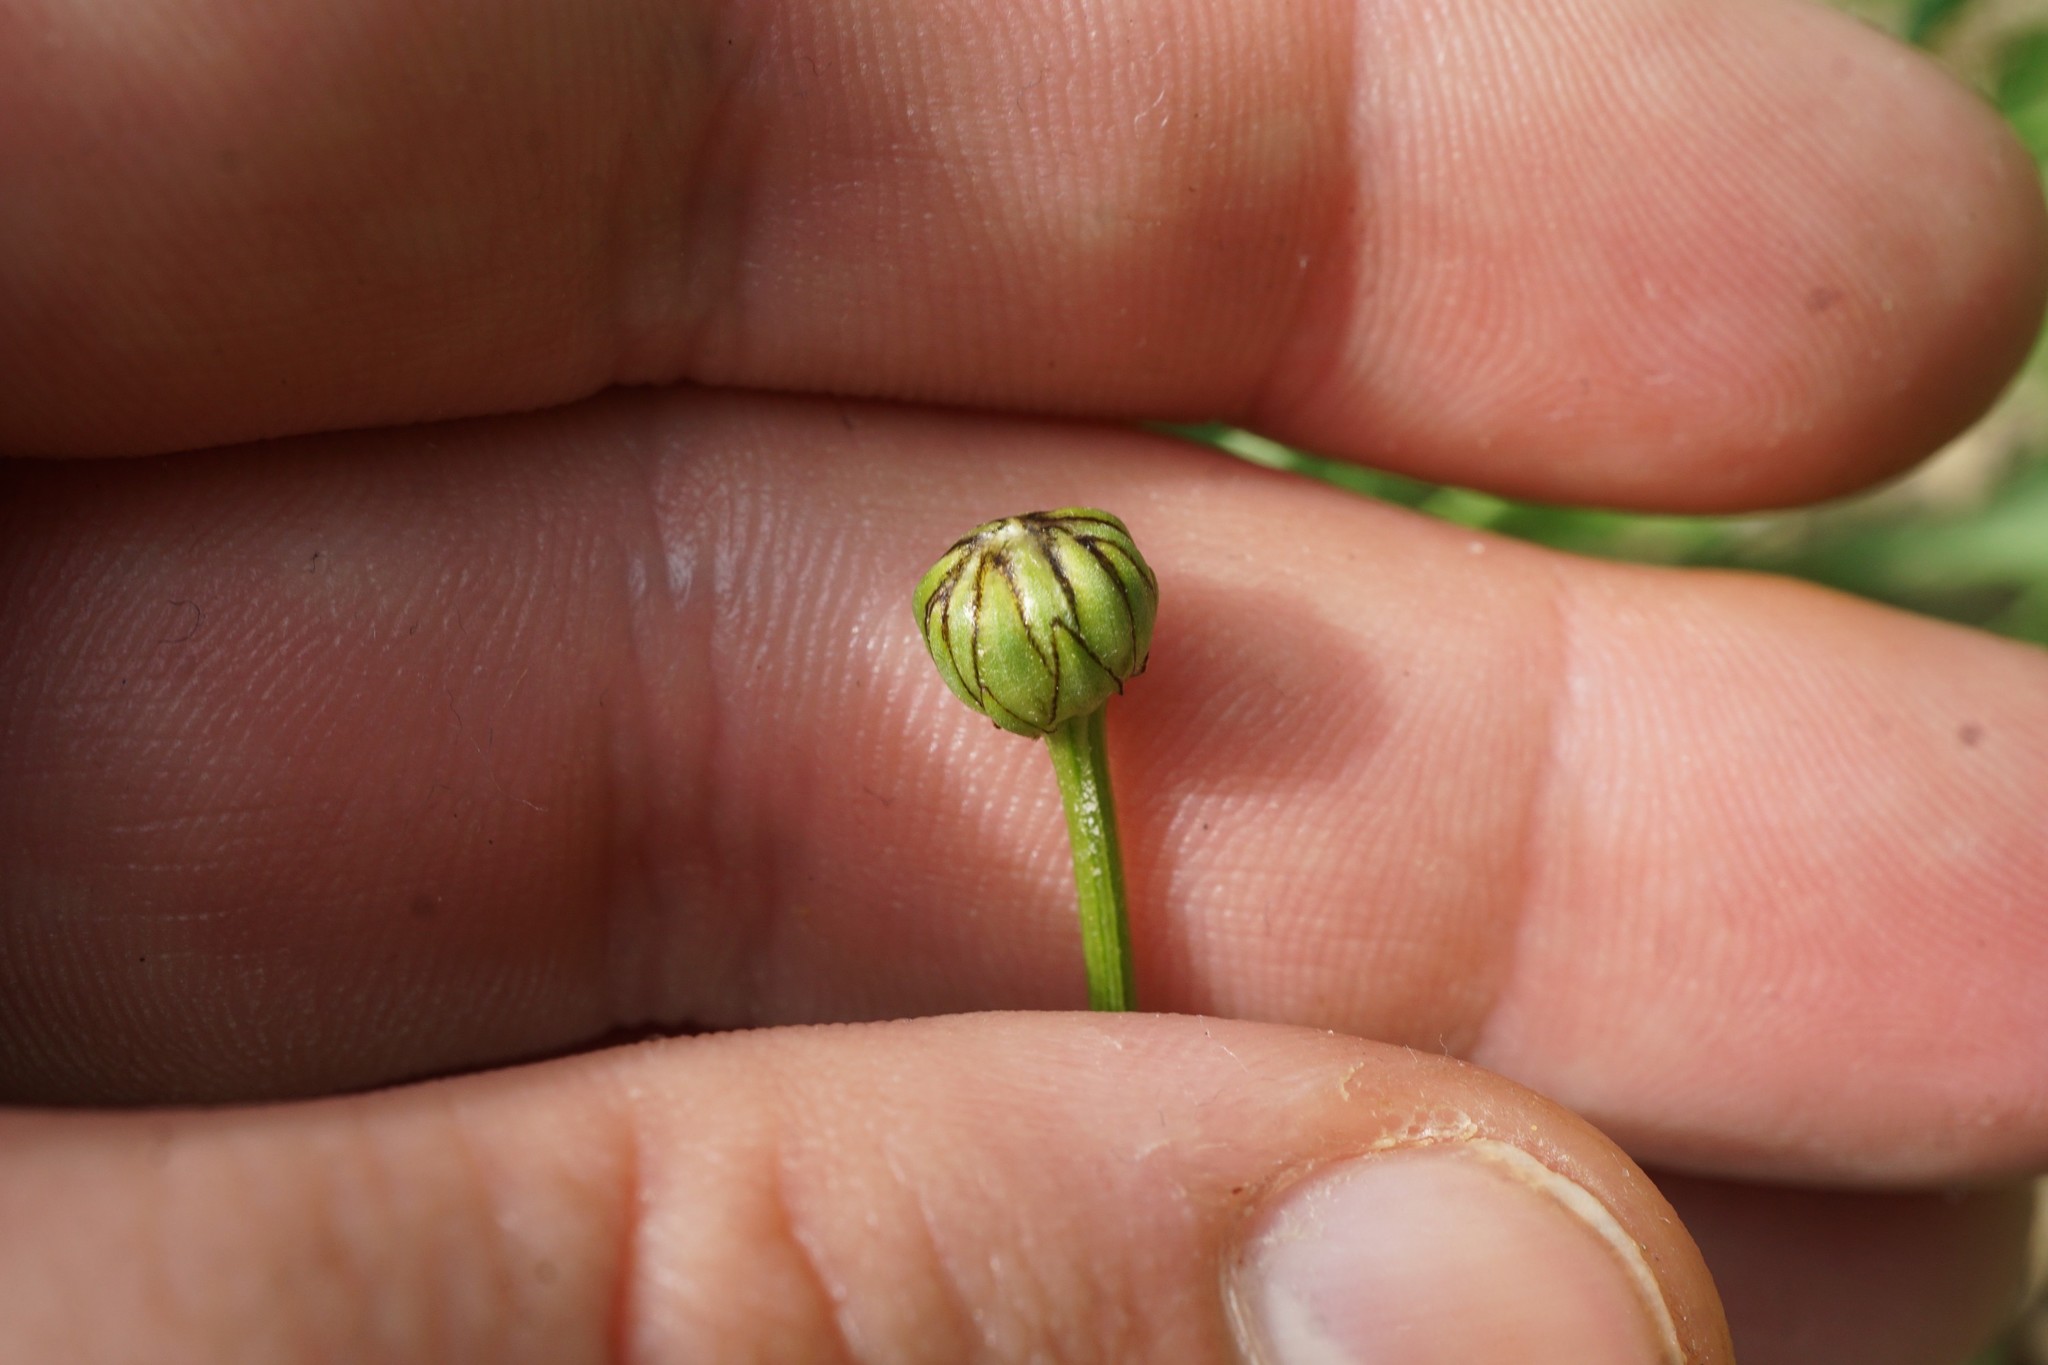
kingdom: Plantae
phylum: Tracheophyta
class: Magnoliopsida
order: Asterales
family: Asteraceae
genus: Leucanthemum
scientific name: Leucanthemum vulgare
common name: Oxeye daisy
